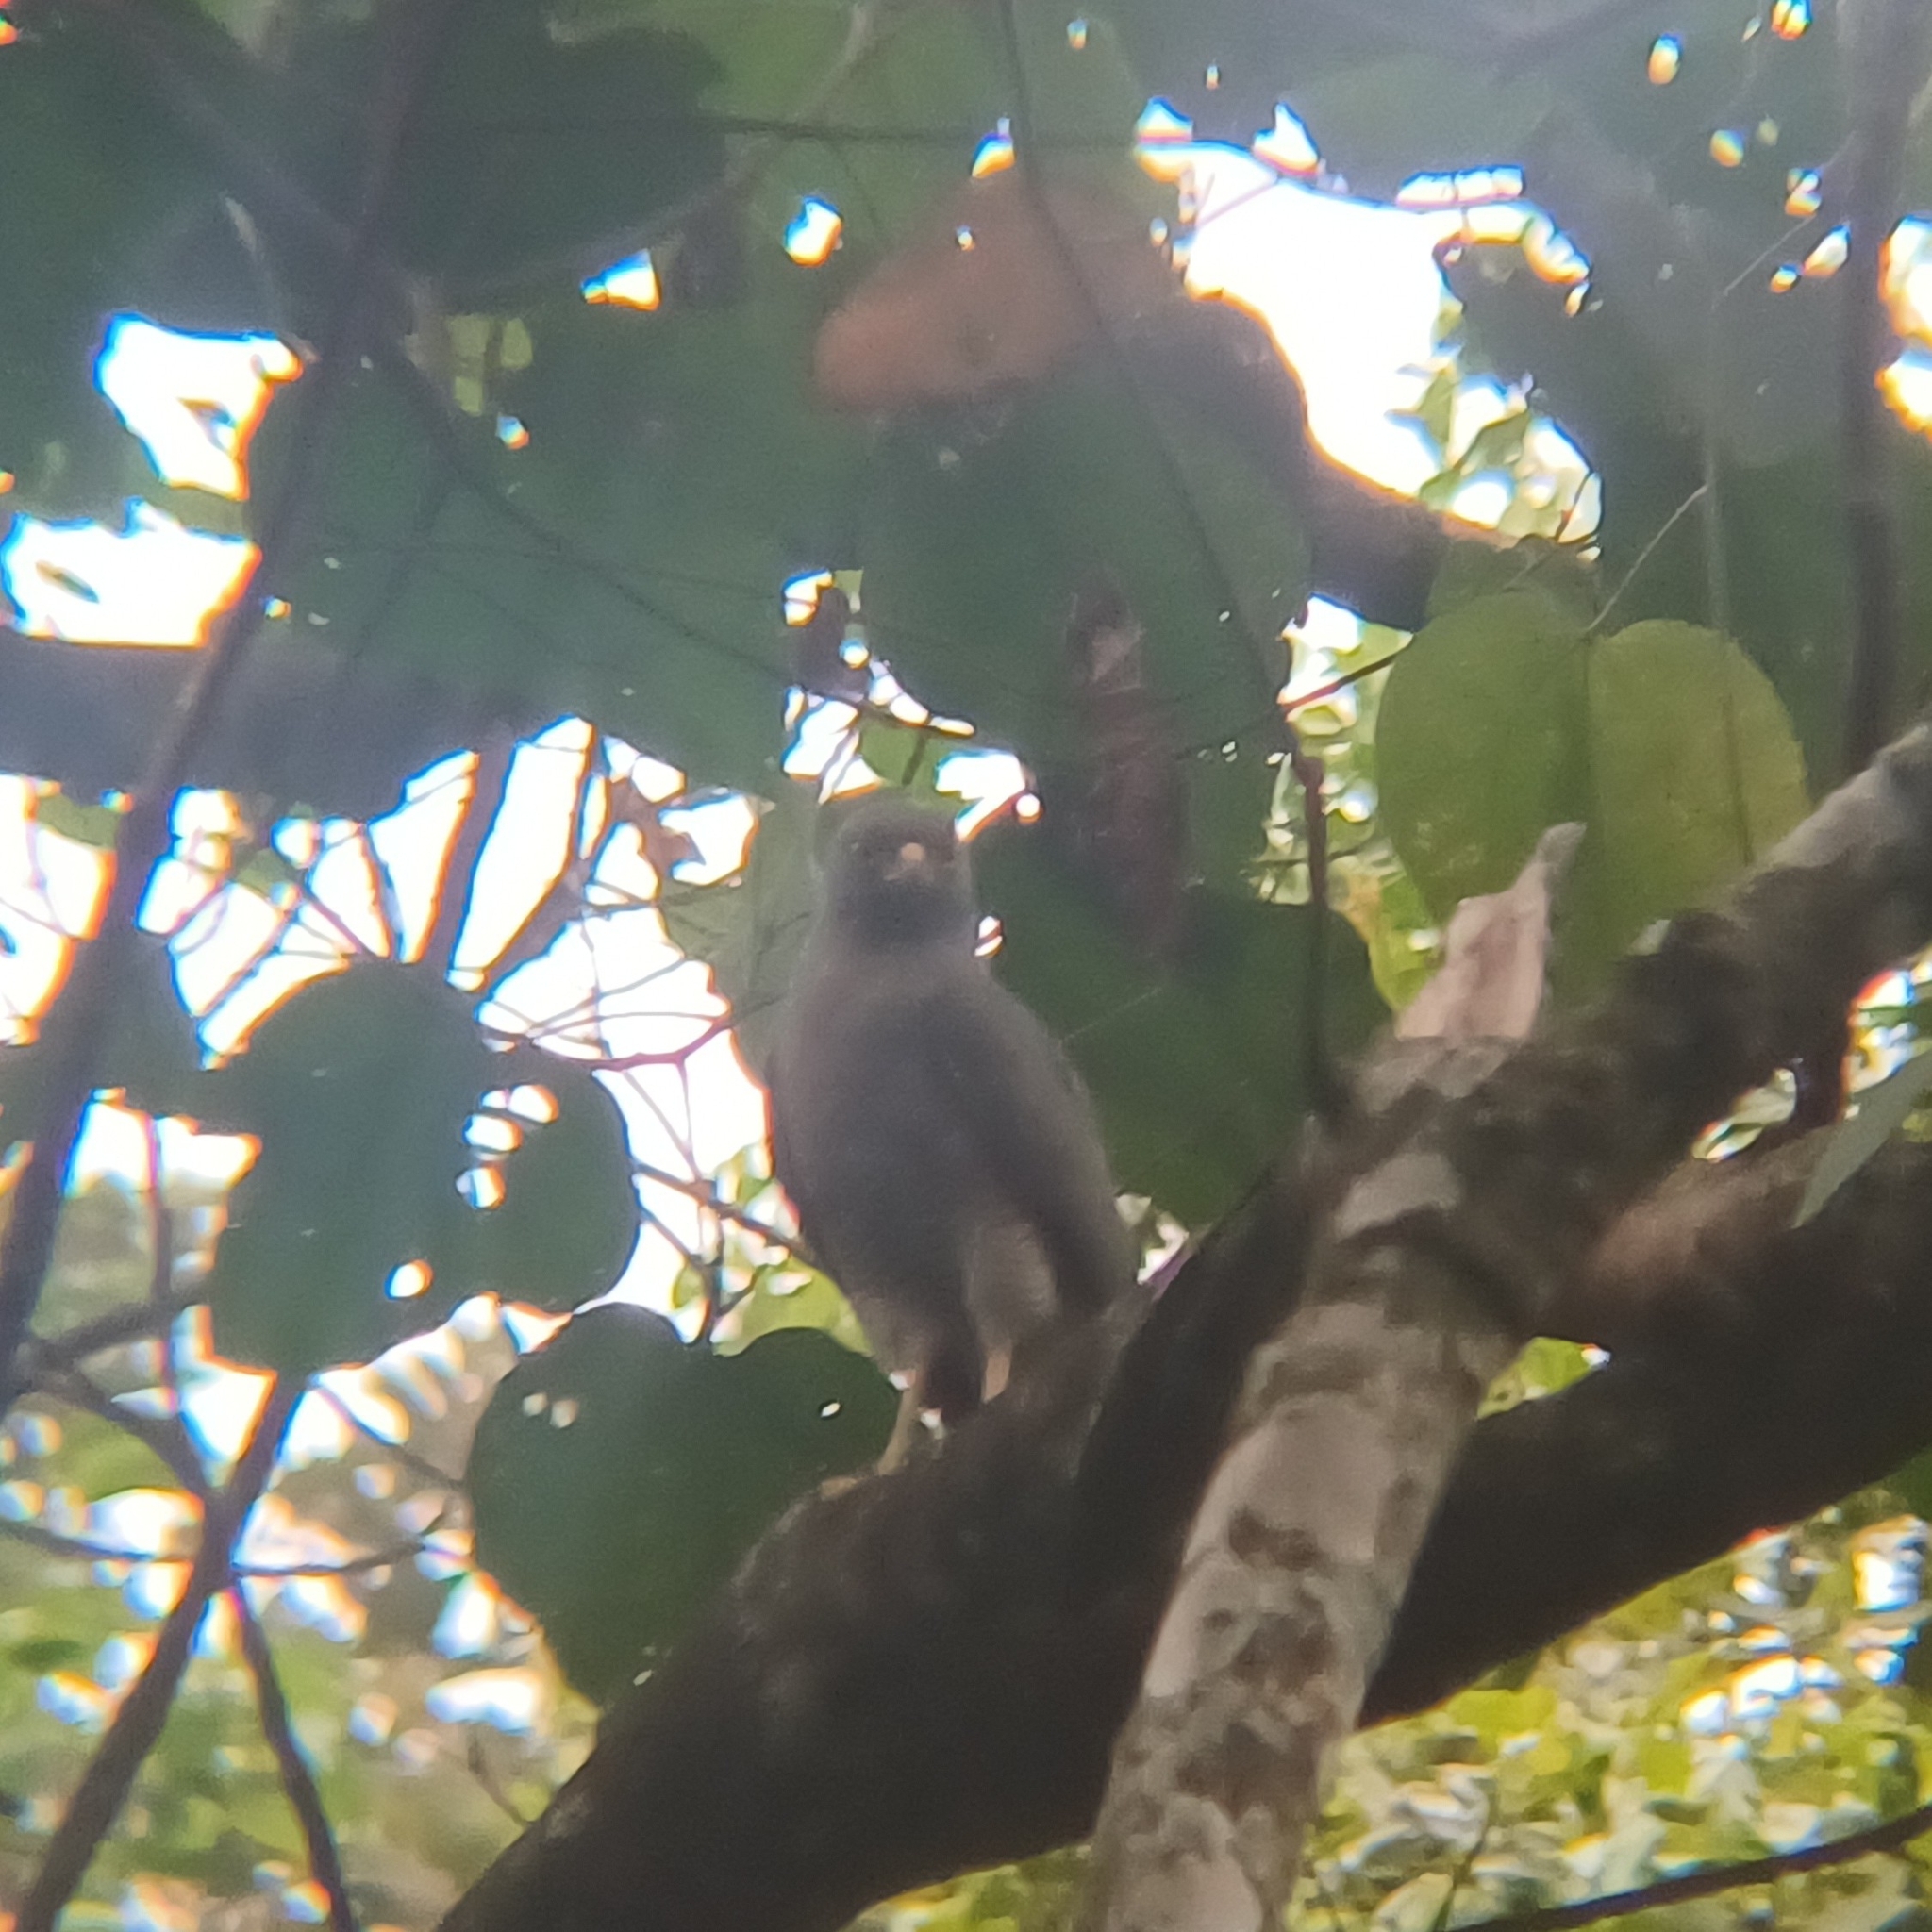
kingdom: Animalia
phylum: Chordata
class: Aves
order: Accipitriformes
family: Accipitridae
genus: Rupornis
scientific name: Rupornis magnirostris
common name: Roadside hawk
